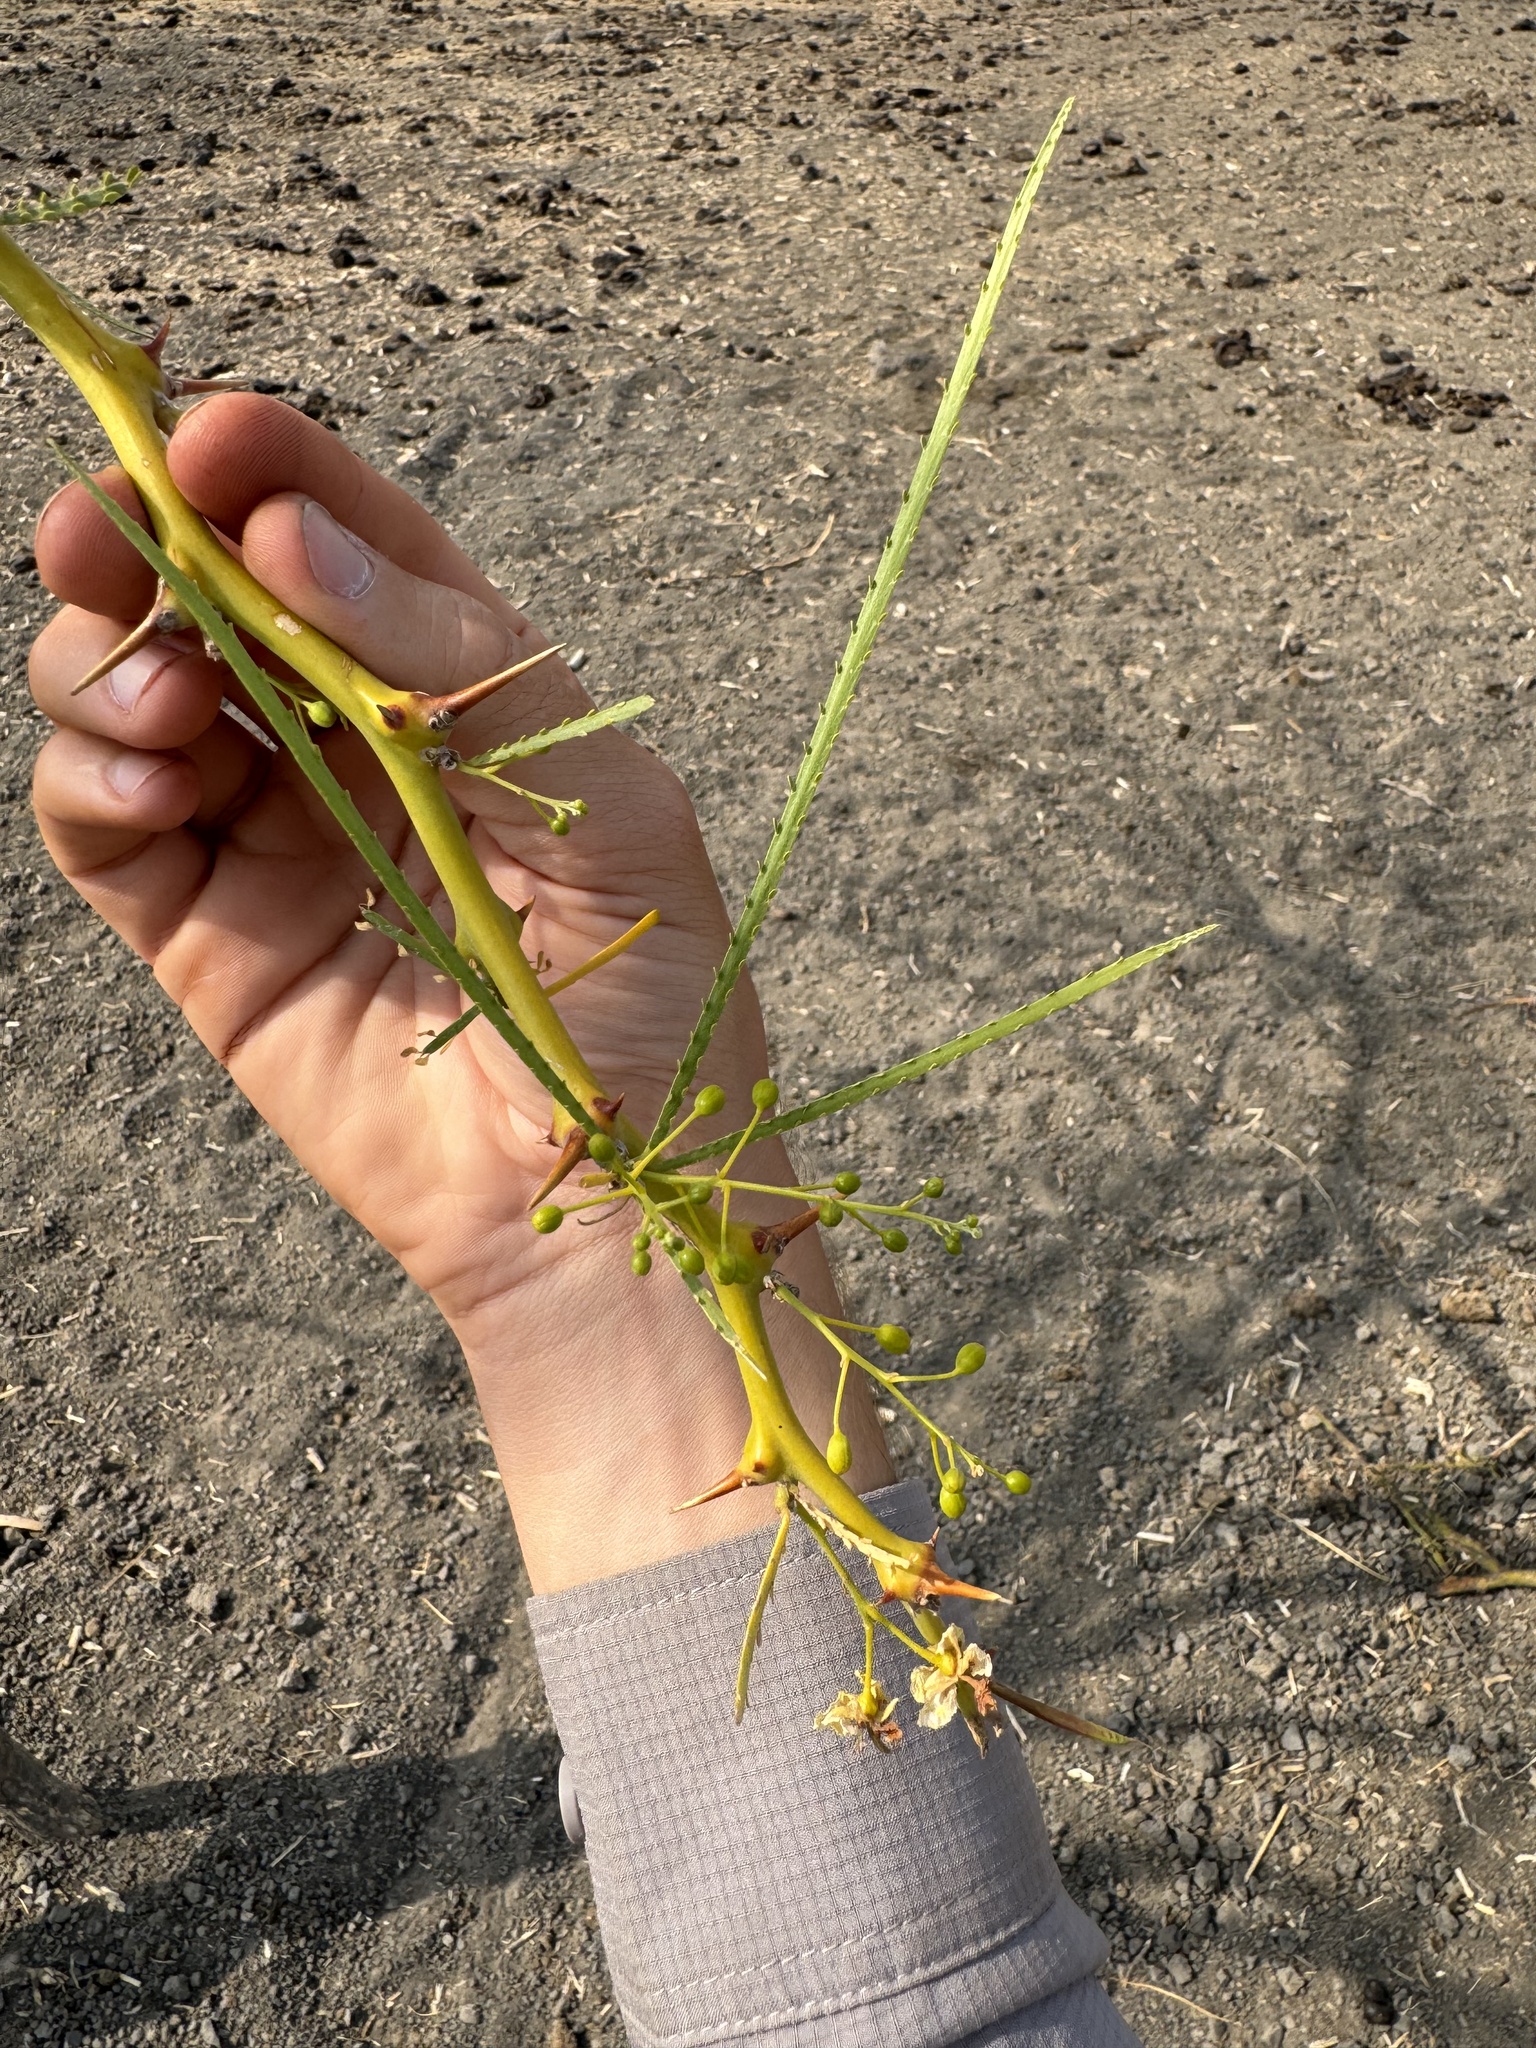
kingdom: Plantae
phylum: Tracheophyta
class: Magnoliopsida
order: Fabales
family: Fabaceae
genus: Parkinsonia
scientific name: Parkinsonia aculeata
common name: Jerusalem thorn
